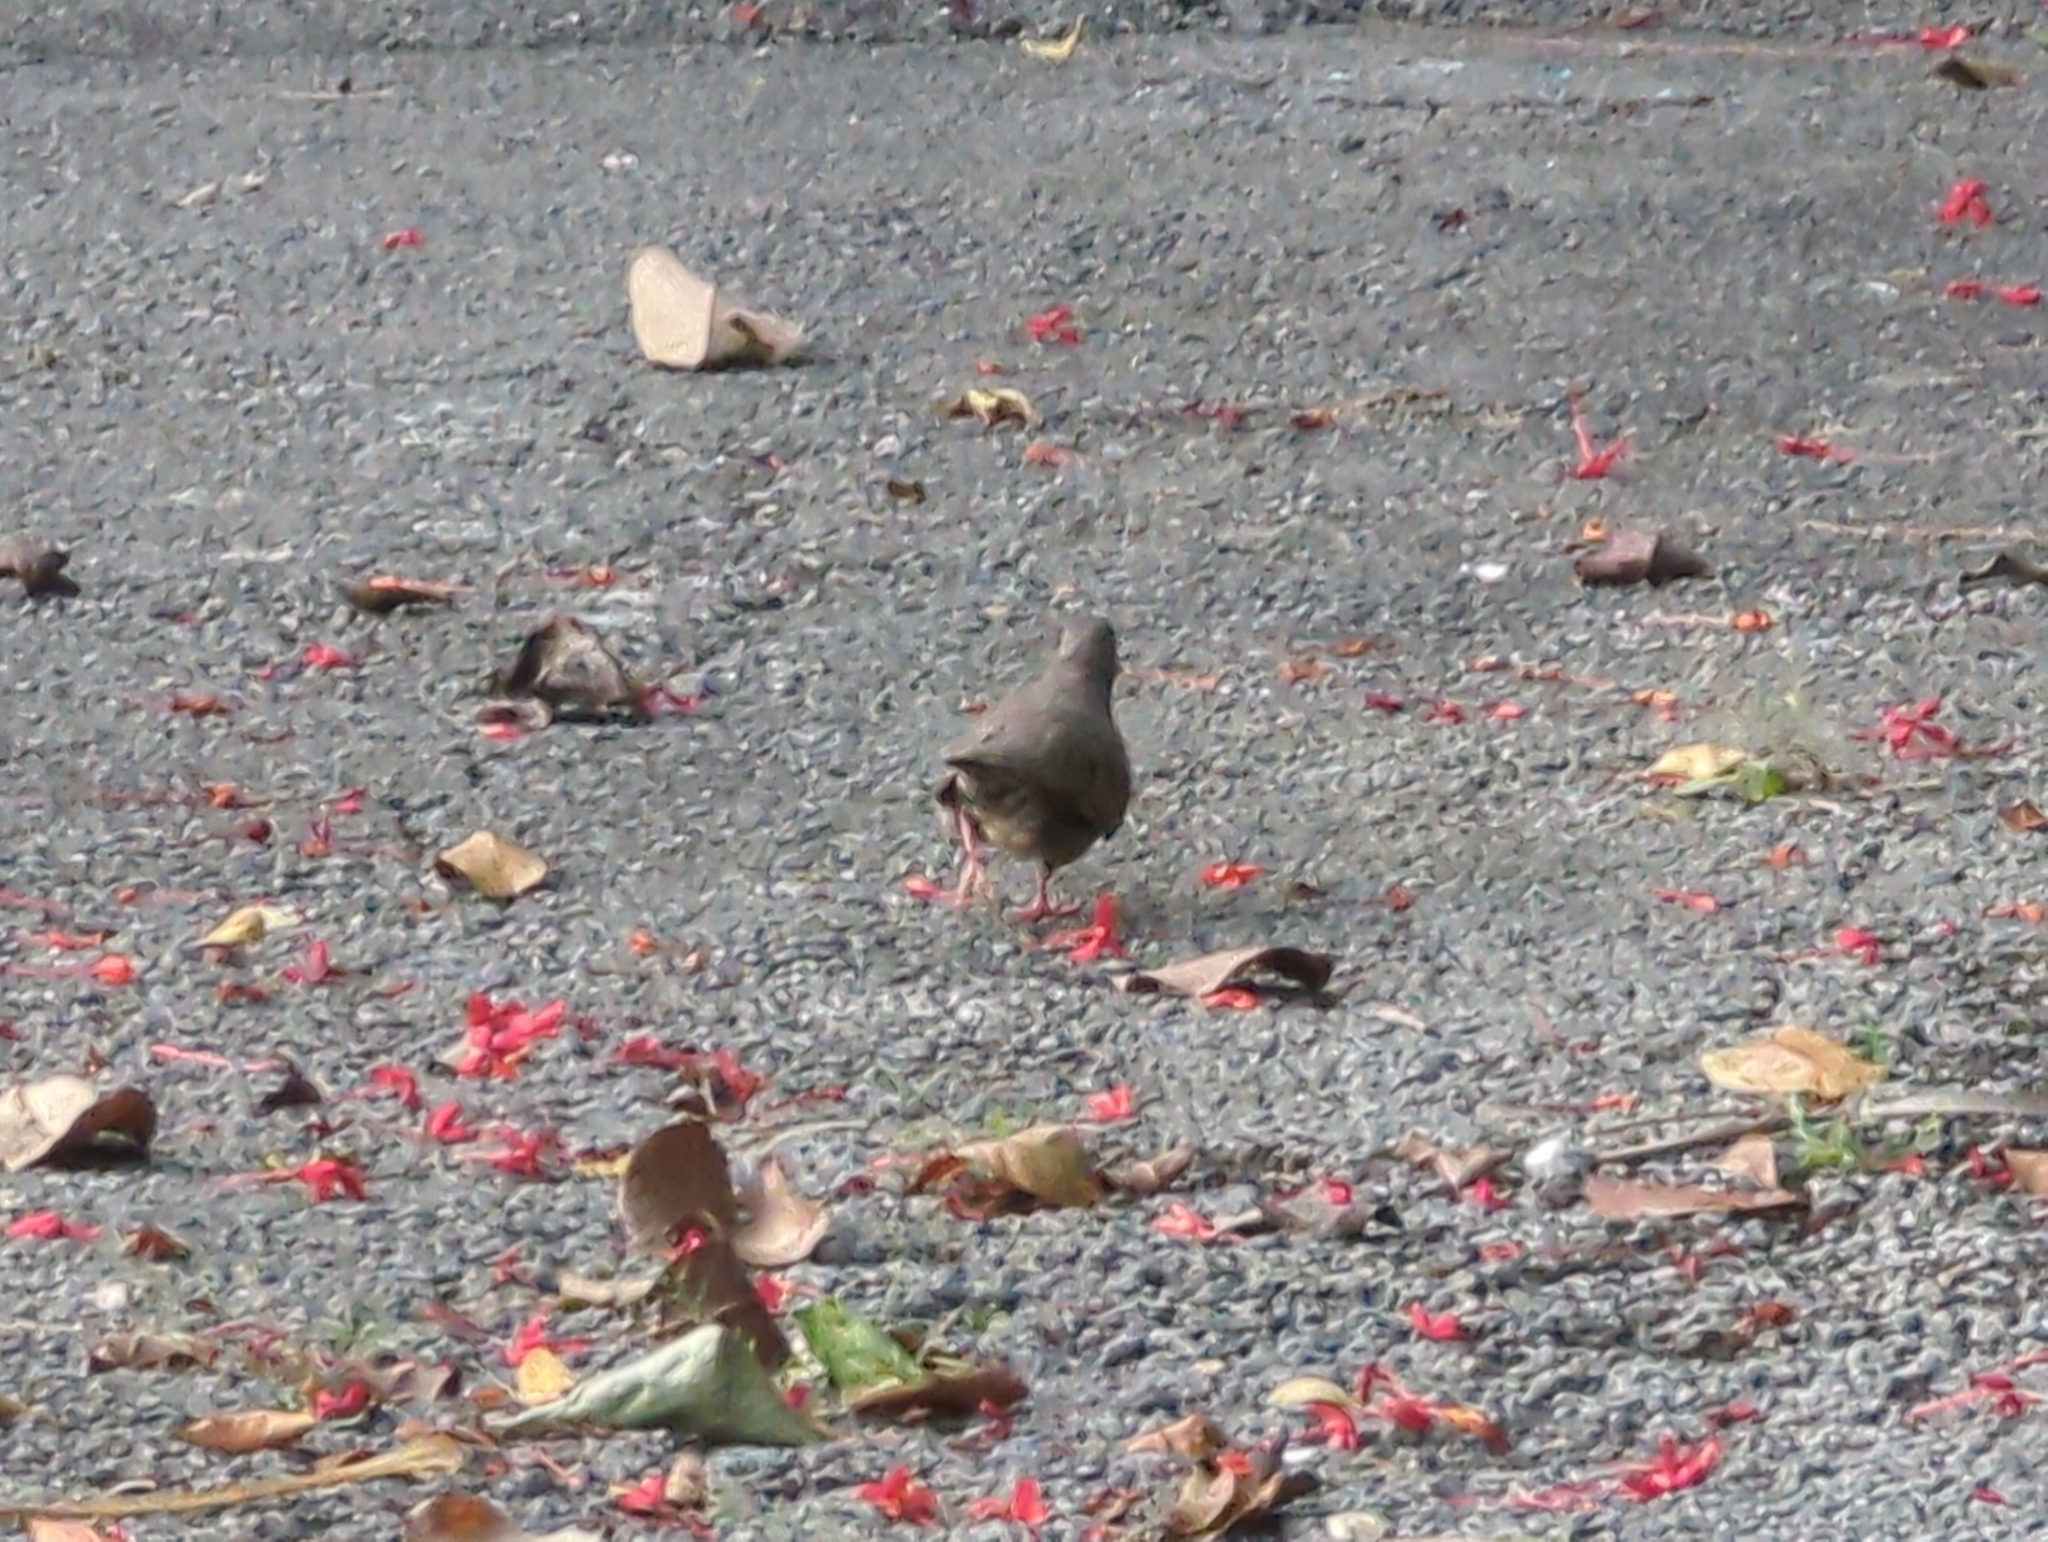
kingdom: Animalia
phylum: Chordata
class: Aves
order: Columbiformes
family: Columbidae
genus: Columbina
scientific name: Columbina passerina
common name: Common ground-dove
